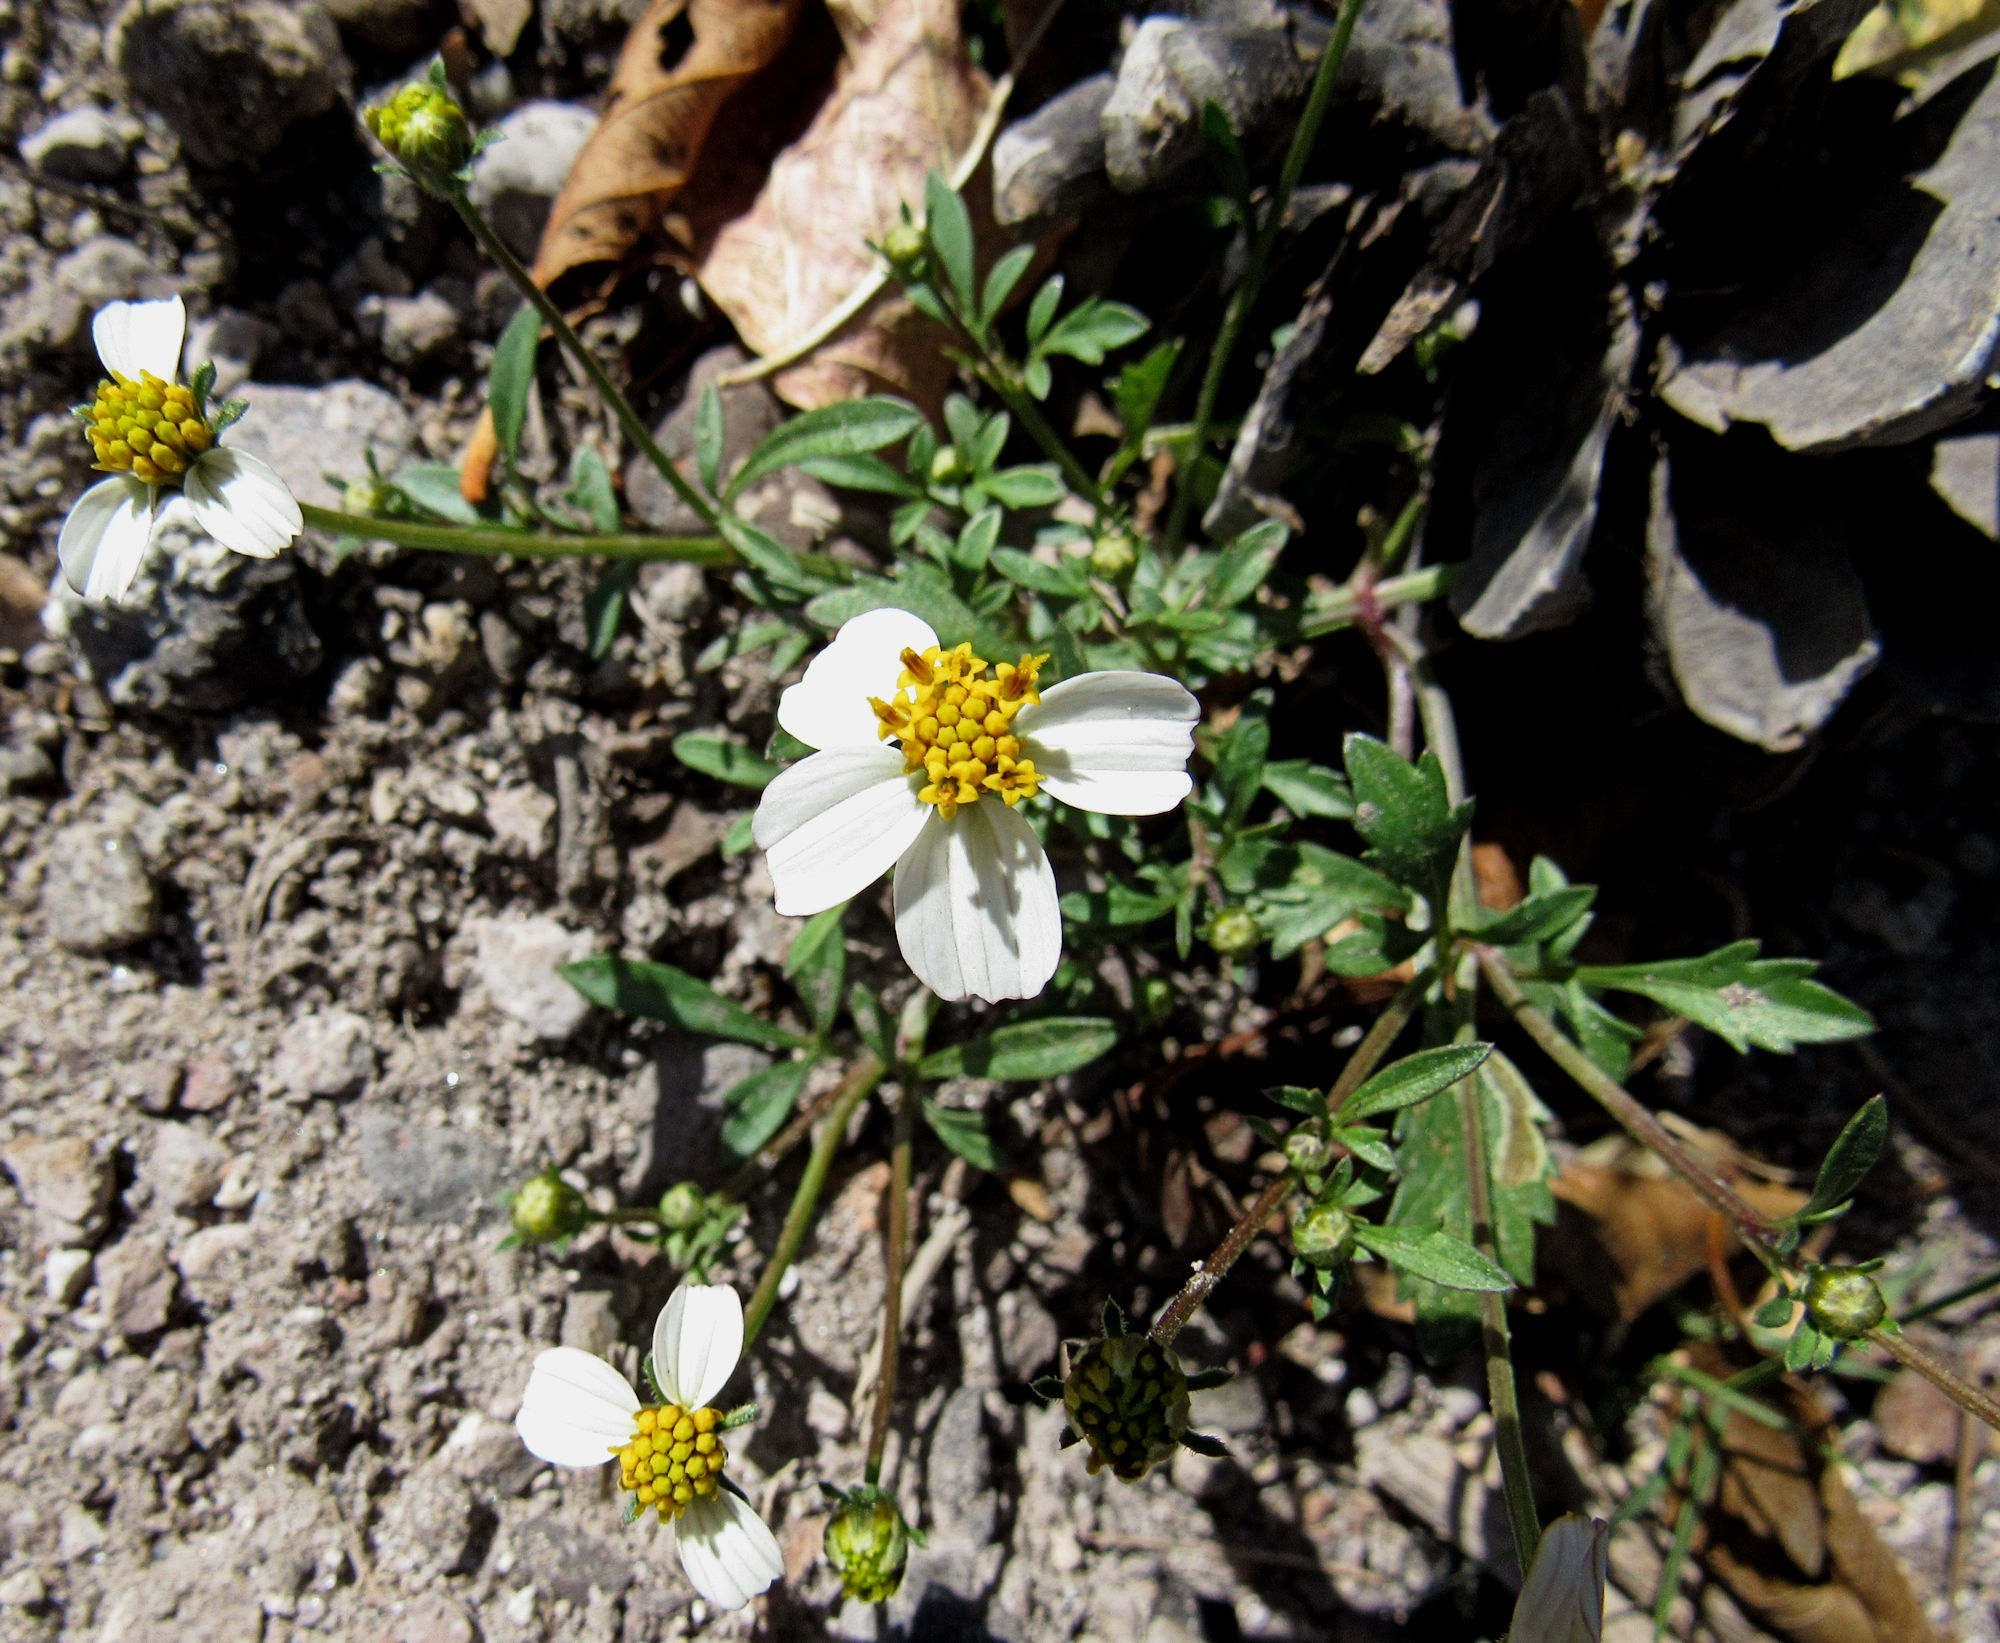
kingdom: Plantae
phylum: Tracheophyta
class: Magnoliopsida
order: Asterales
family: Asteraceae
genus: Bidens
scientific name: Bidens pilosa
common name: Black-jack
